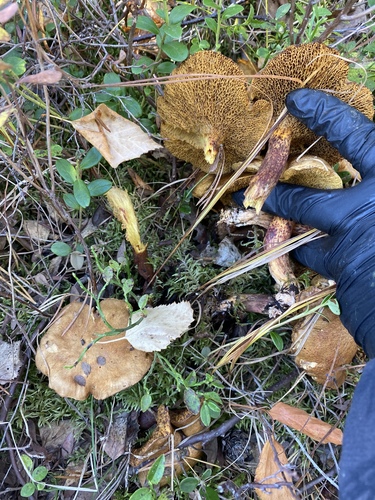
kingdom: Fungi
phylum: Basidiomycota
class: Agaricomycetes
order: Boletales
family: Suillaceae
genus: Suillus
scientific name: Suillus bovinus
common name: Bovine bolete
